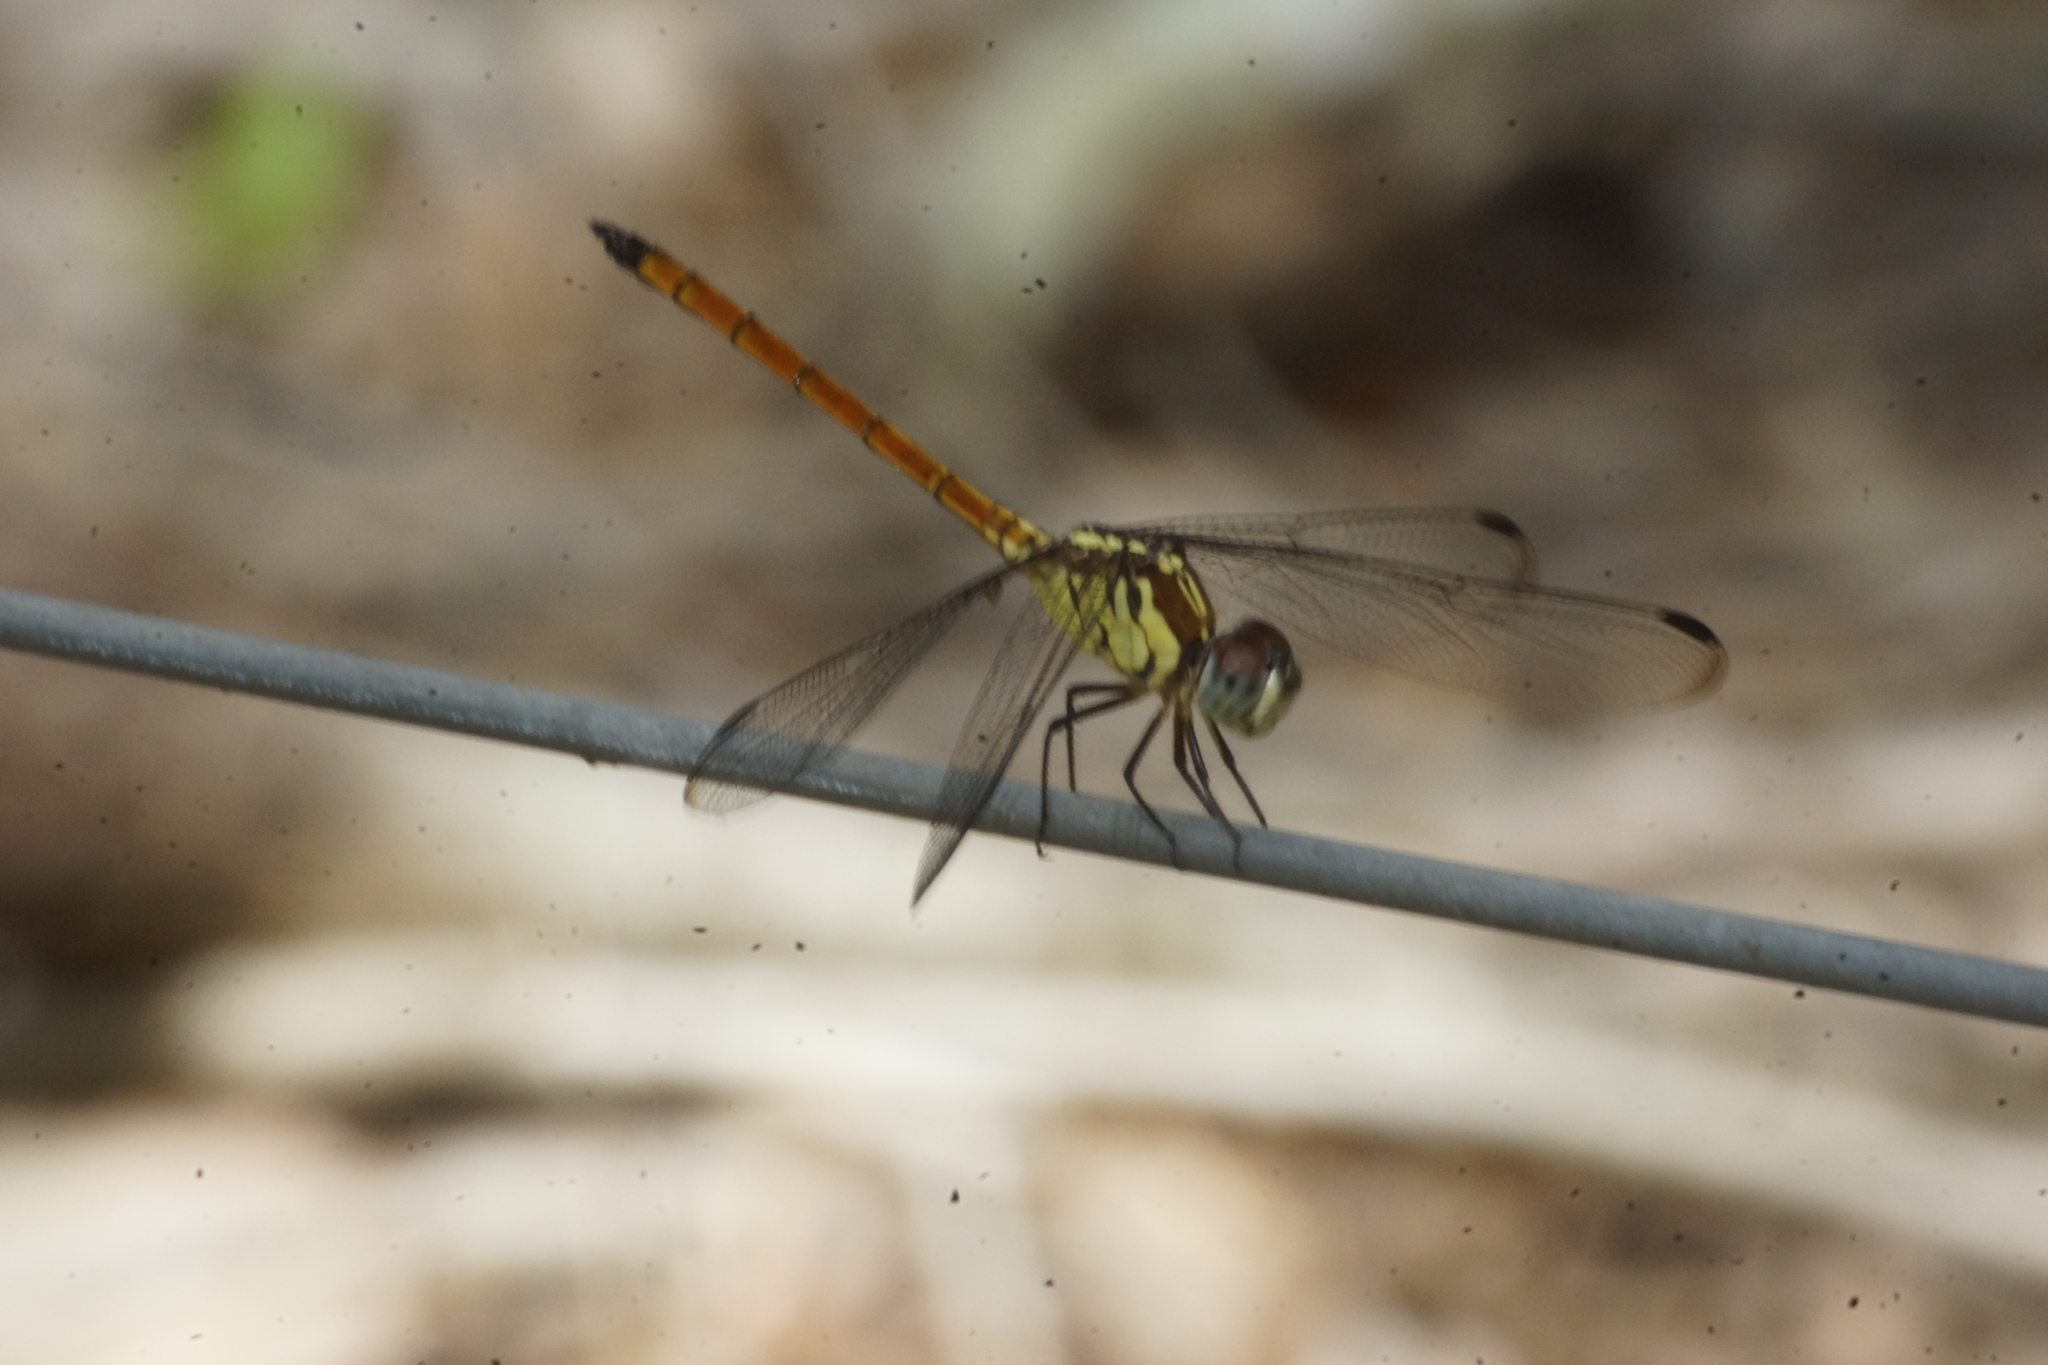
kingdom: Animalia
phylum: Arthropoda
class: Insecta
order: Odonata
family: Libellulidae
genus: Lathrecista
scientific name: Lathrecista asiatica
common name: Scarlet grenadier
